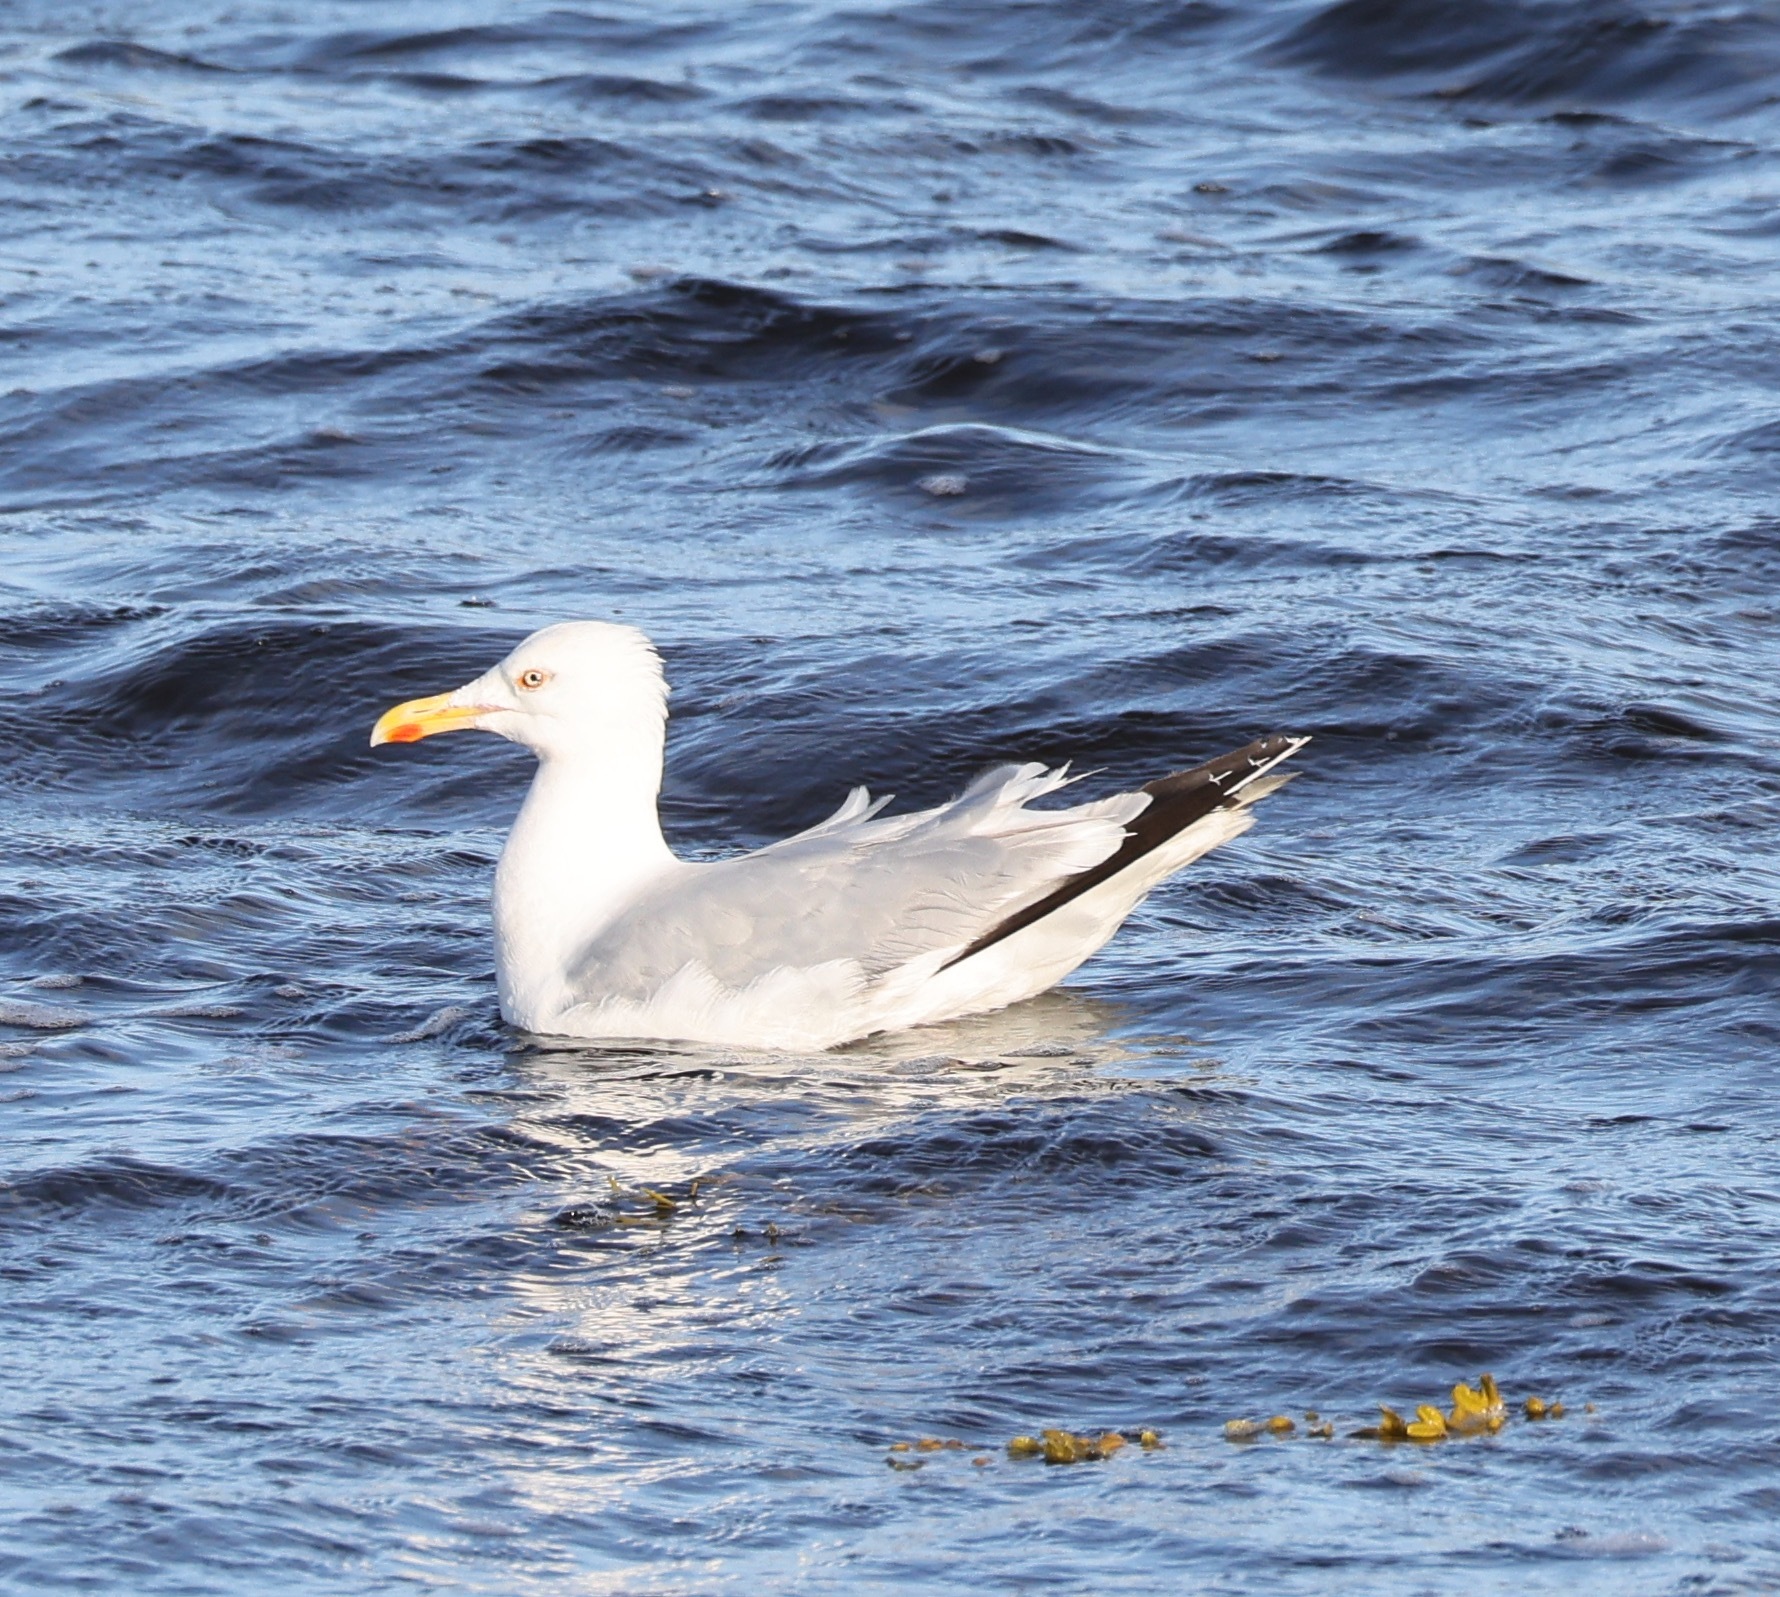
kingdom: Animalia
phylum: Chordata
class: Aves
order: Charadriiformes
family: Laridae
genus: Larus
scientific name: Larus argentatus
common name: Herring gull
